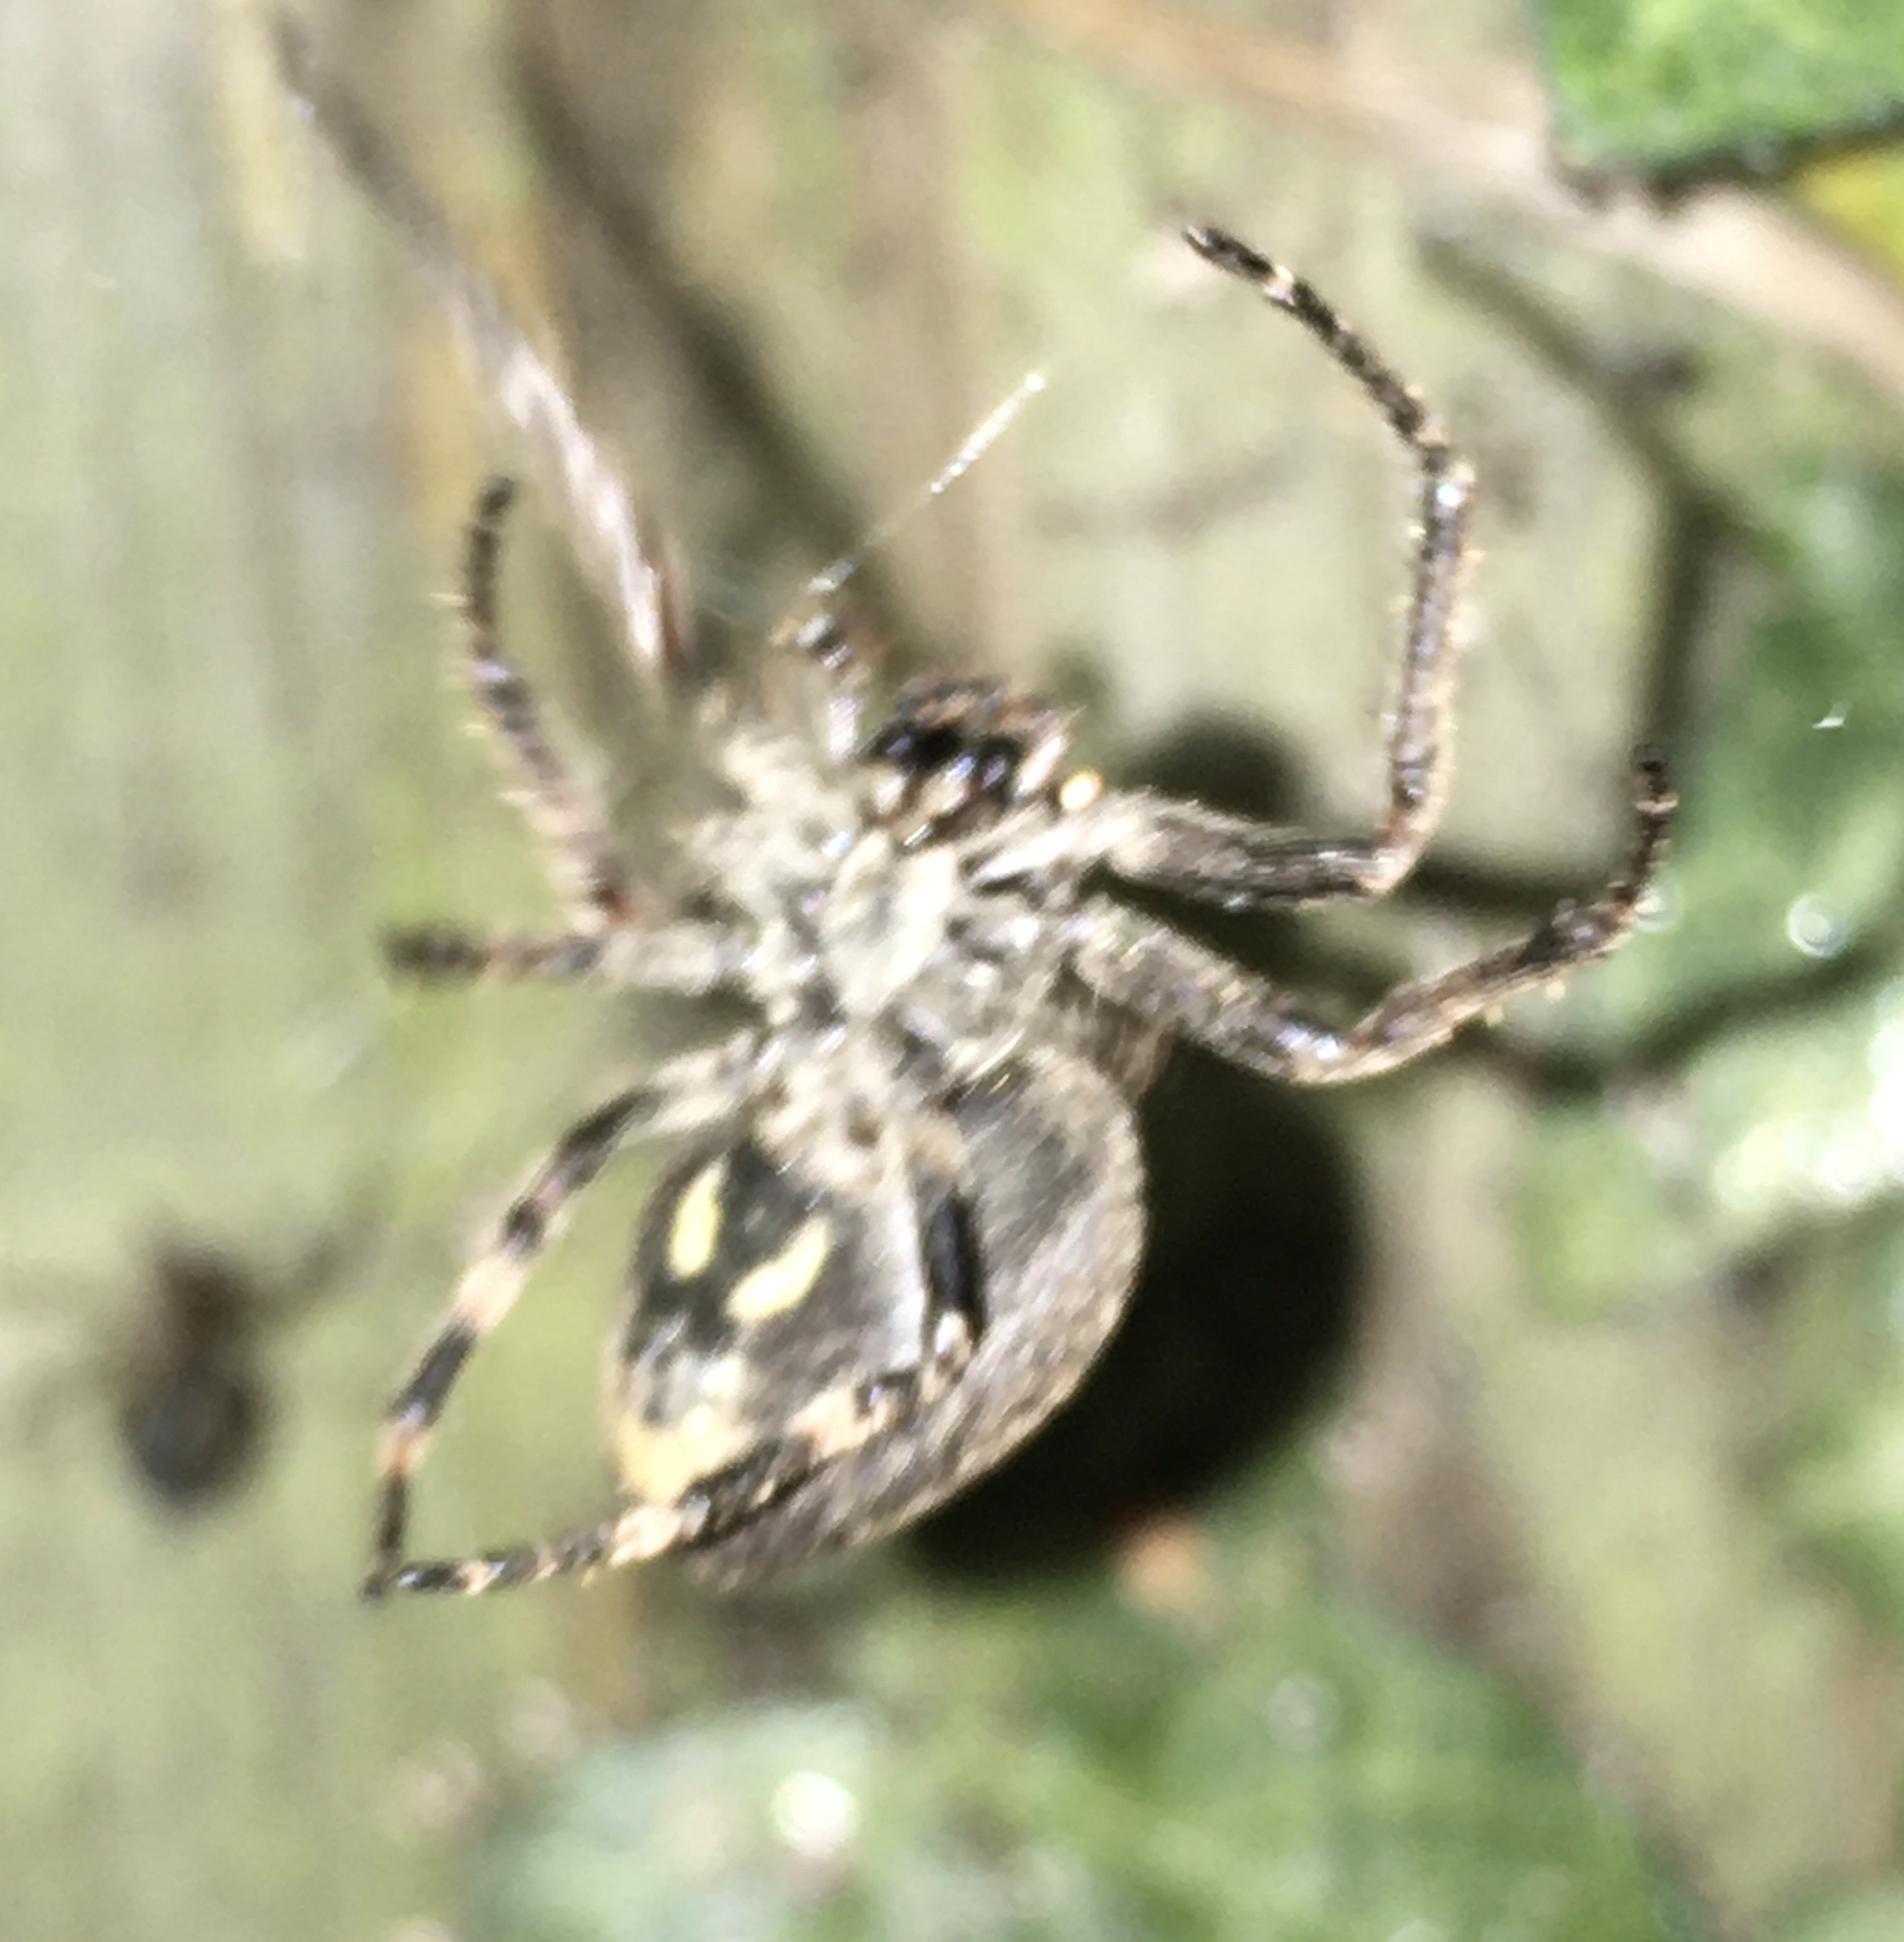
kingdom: Animalia
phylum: Arthropoda
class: Arachnida
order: Araneae
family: Araneidae
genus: Nuctenea
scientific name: Nuctenea umbratica
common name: Toad spider
